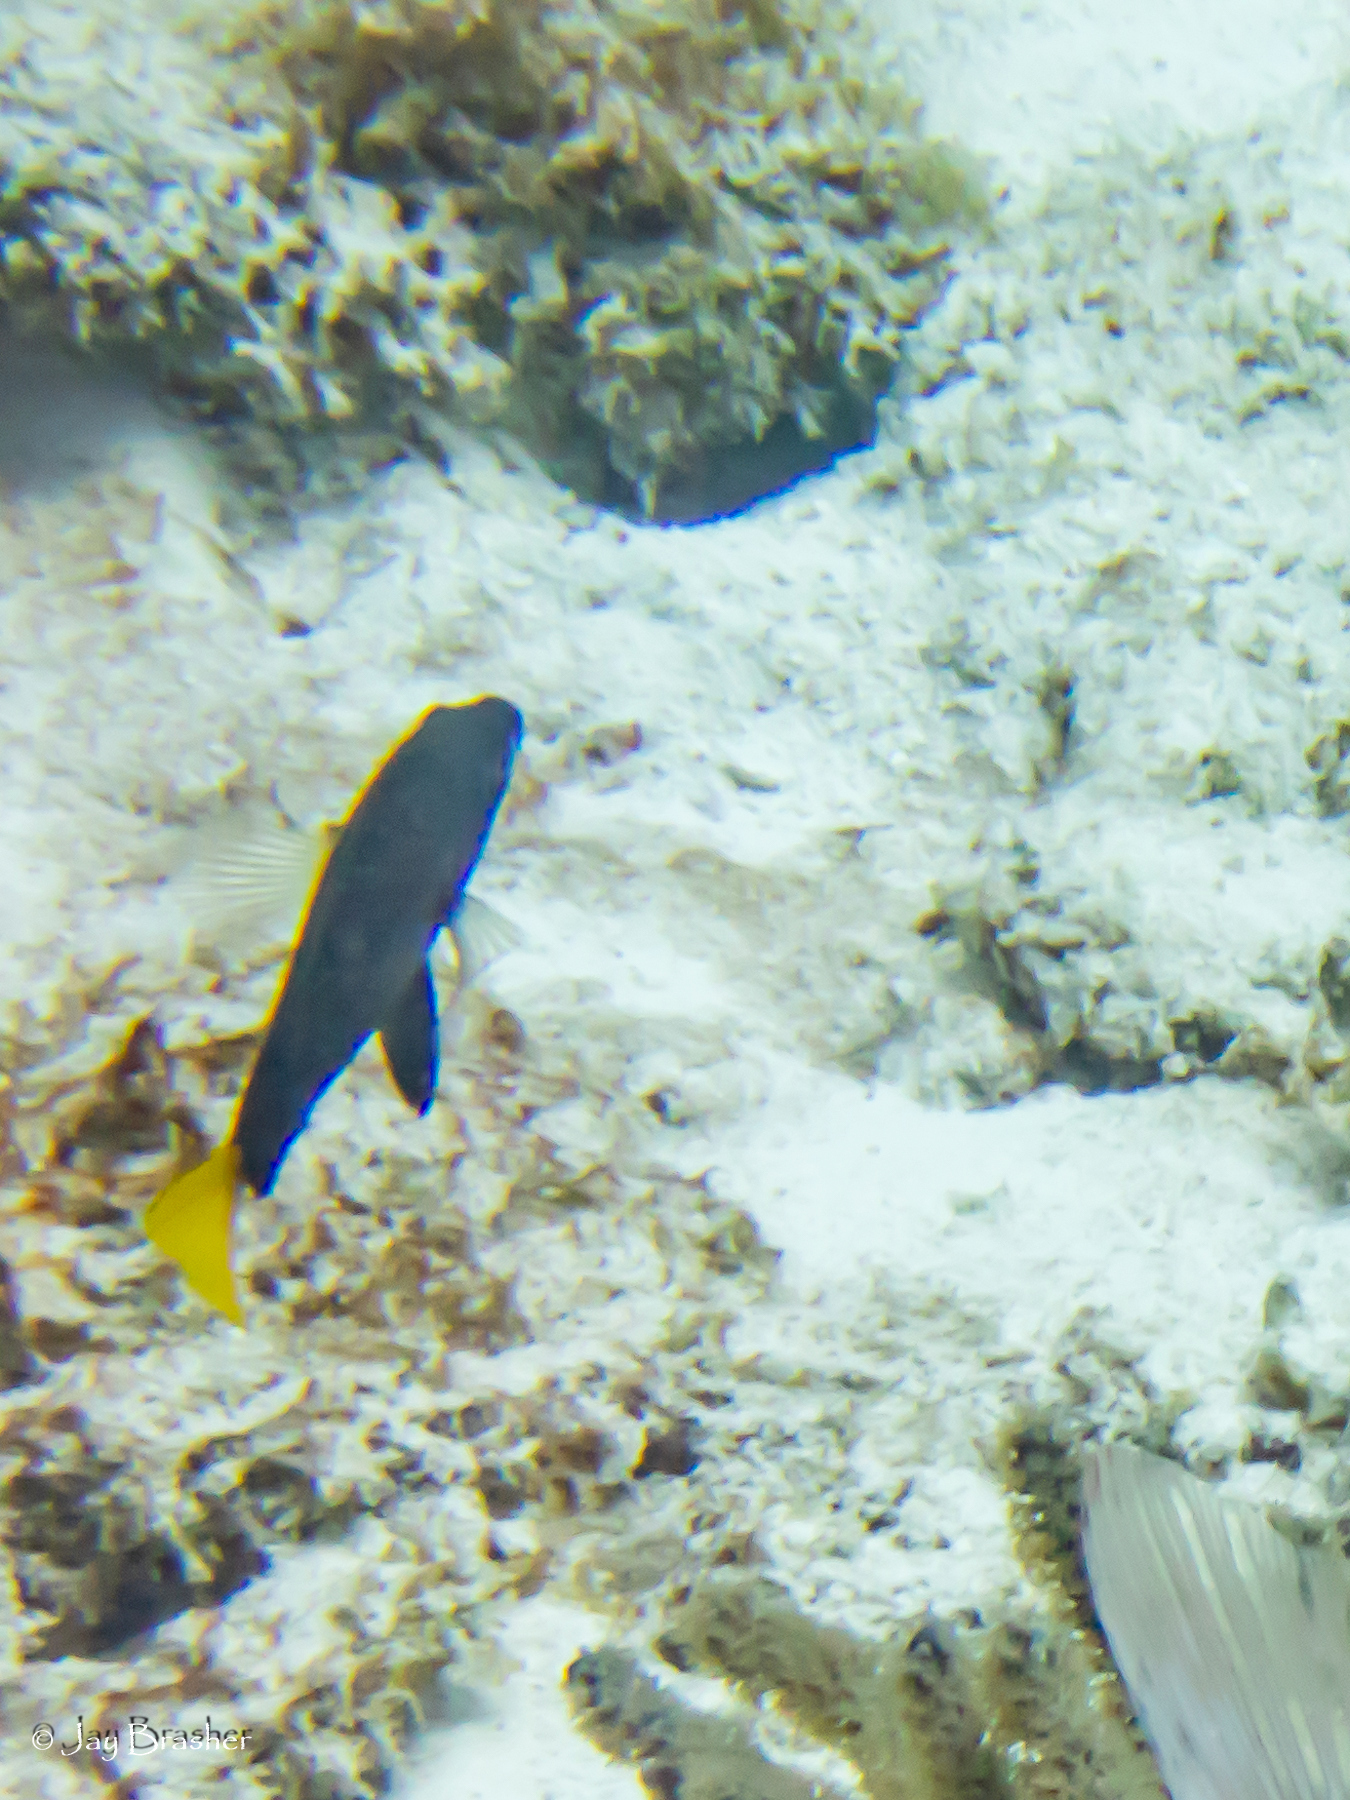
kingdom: Animalia
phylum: Chordata
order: Perciformes
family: Serranidae
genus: Hypoplectrus
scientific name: Hypoplectrus chlorurus
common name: Yellowtail hamlet
